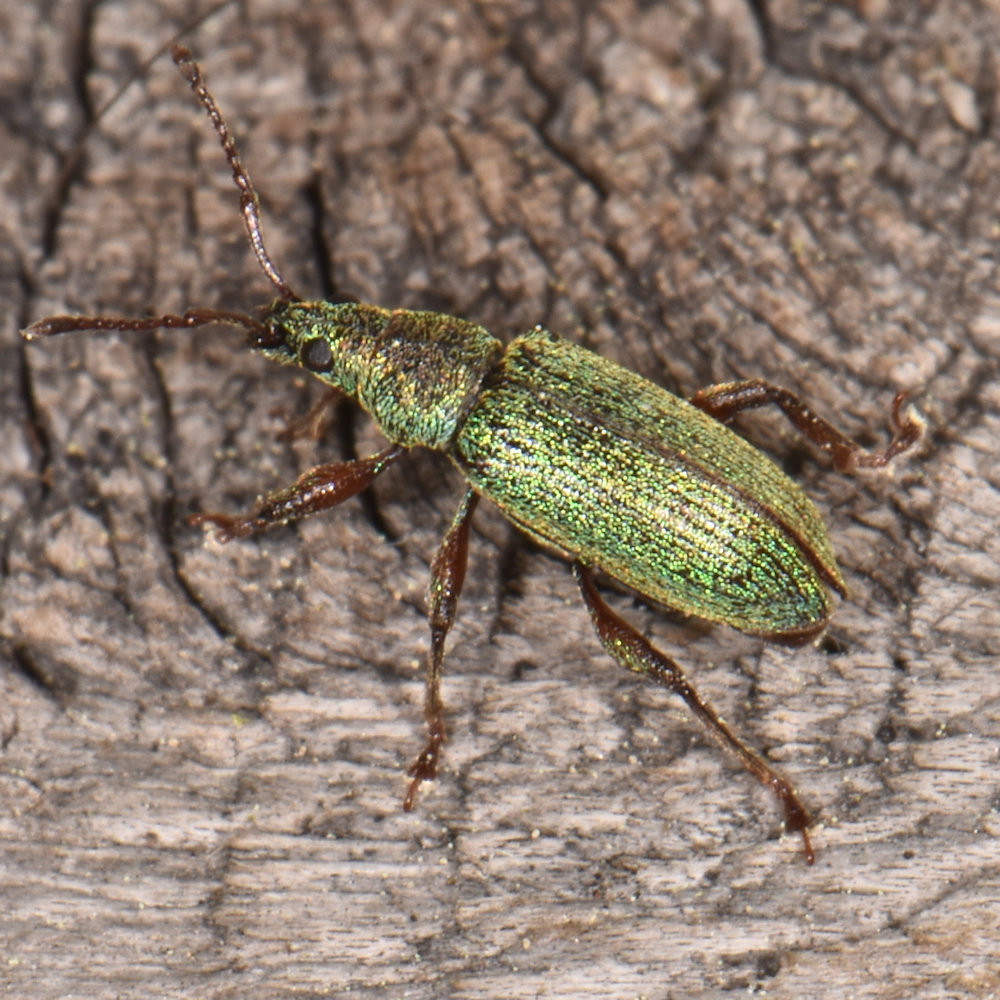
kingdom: Animalia
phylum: Arthropoda
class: Insecta
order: Coleoptera
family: Curculionidae
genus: Parascythopus
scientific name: Parascythopus intrusus
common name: Weevil
